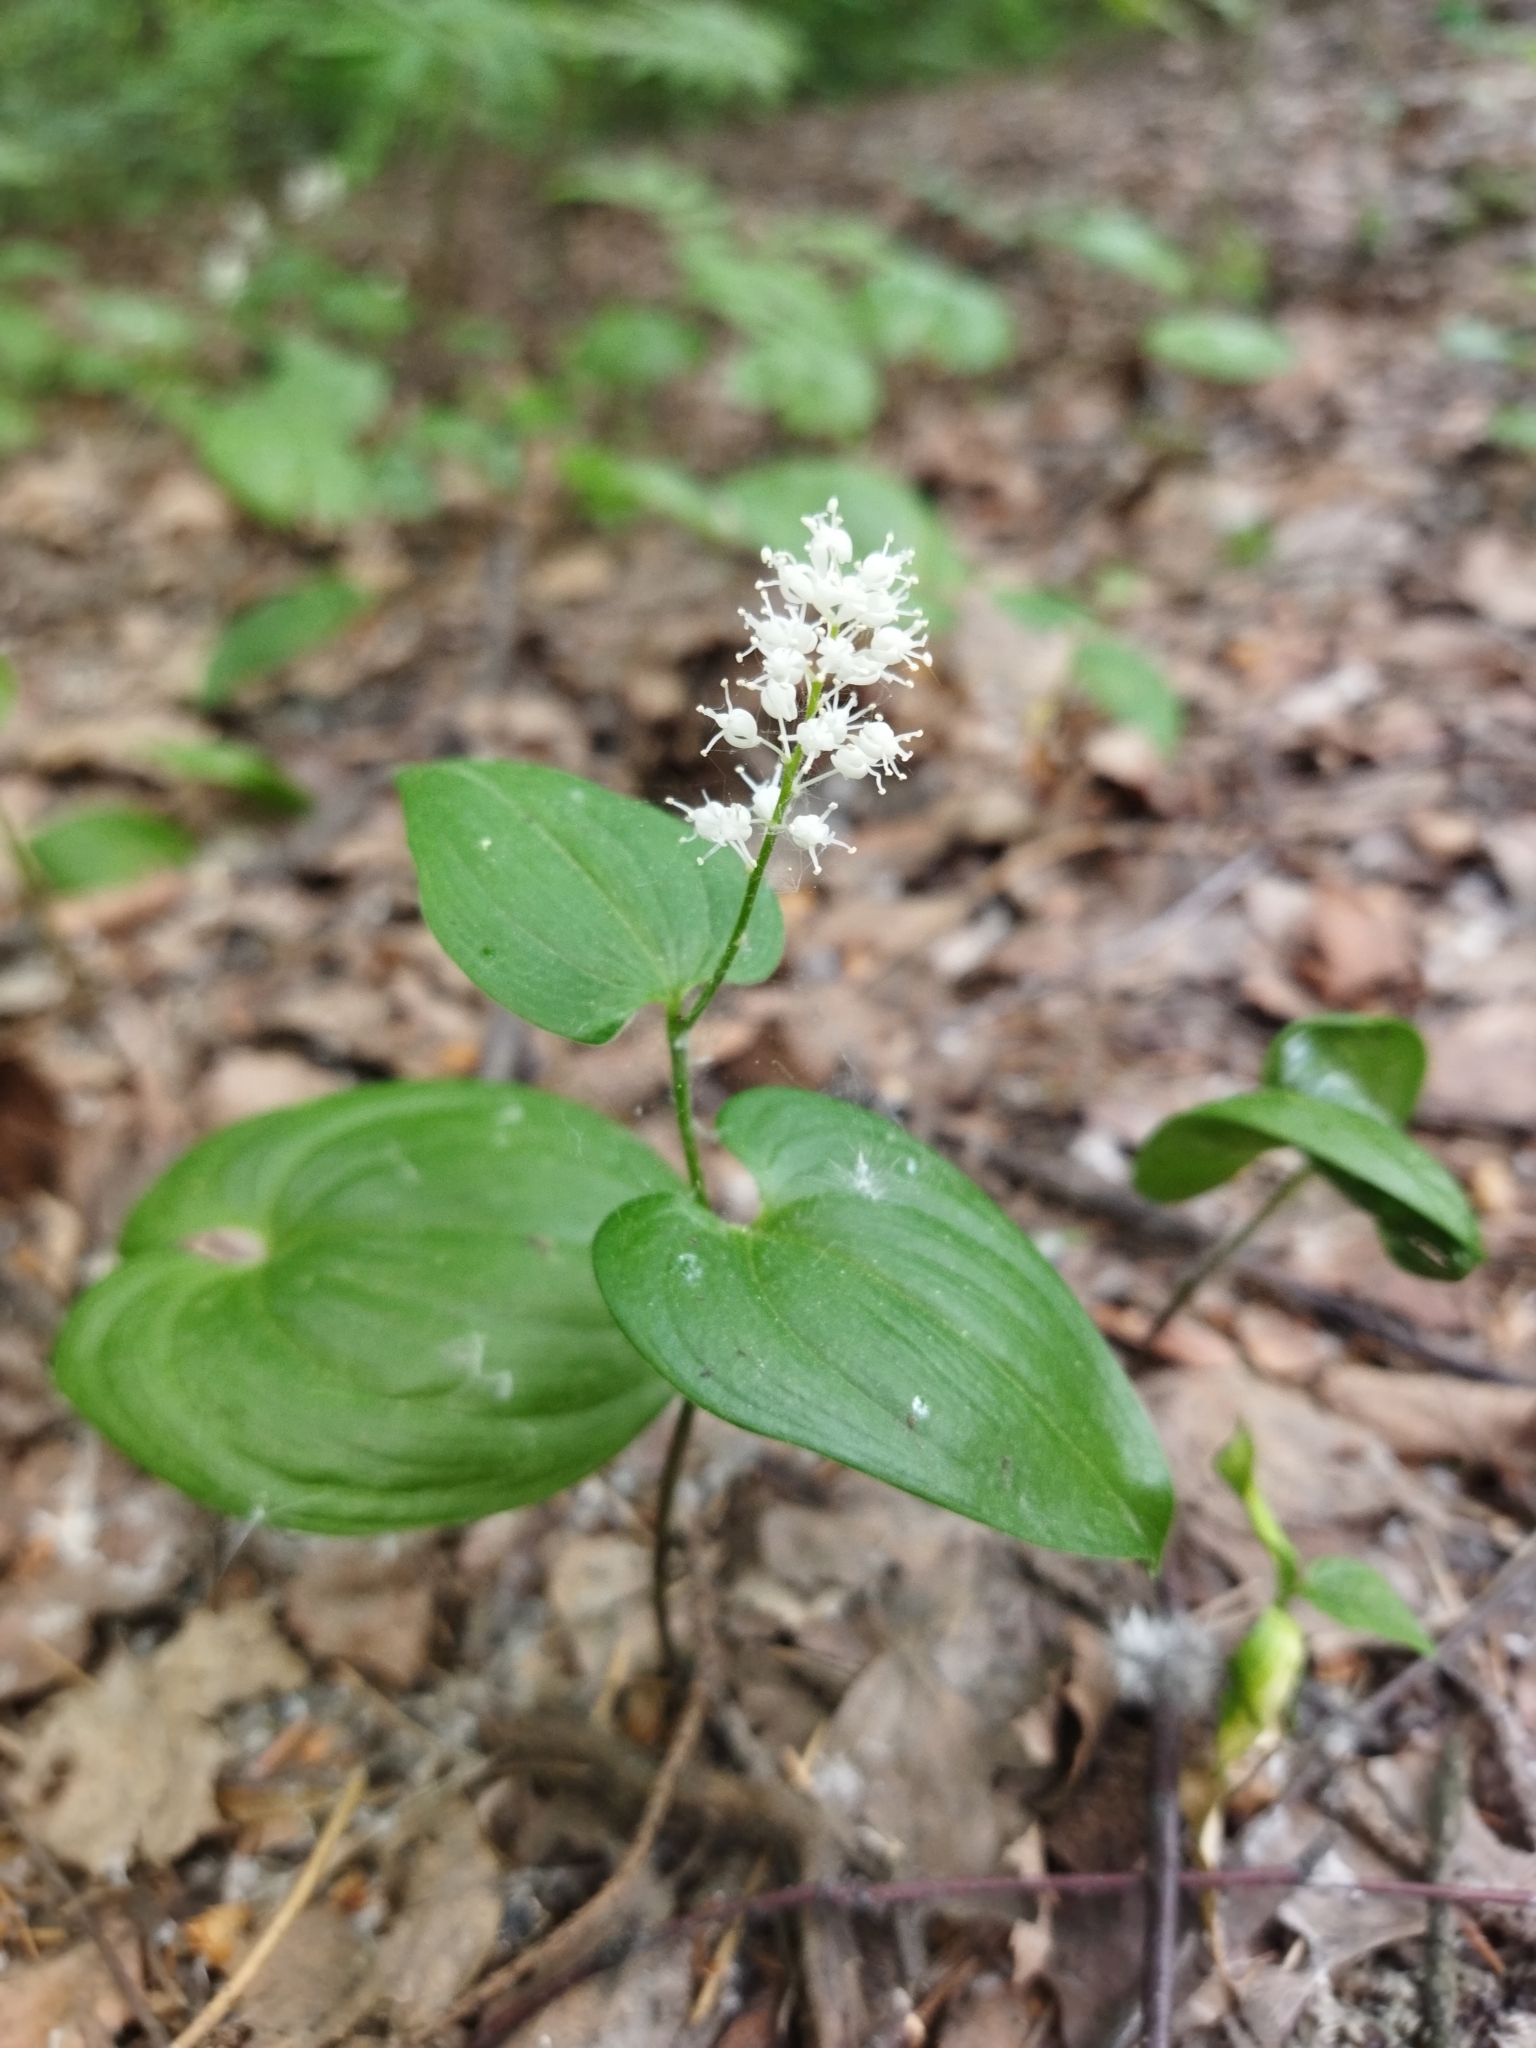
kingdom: Plantae
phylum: Tracheophyta
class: Liliopsida
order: Asparagales
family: Asparagaceae
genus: Maianthemum
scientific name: Maianthemum bifolium
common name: May lily
